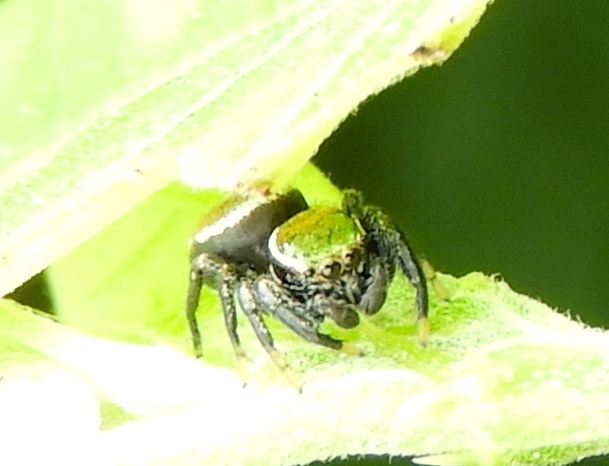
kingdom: Animalia
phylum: Arthropoda
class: Arachnida
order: Araneae
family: Salticidae
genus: Messua
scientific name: Messua
